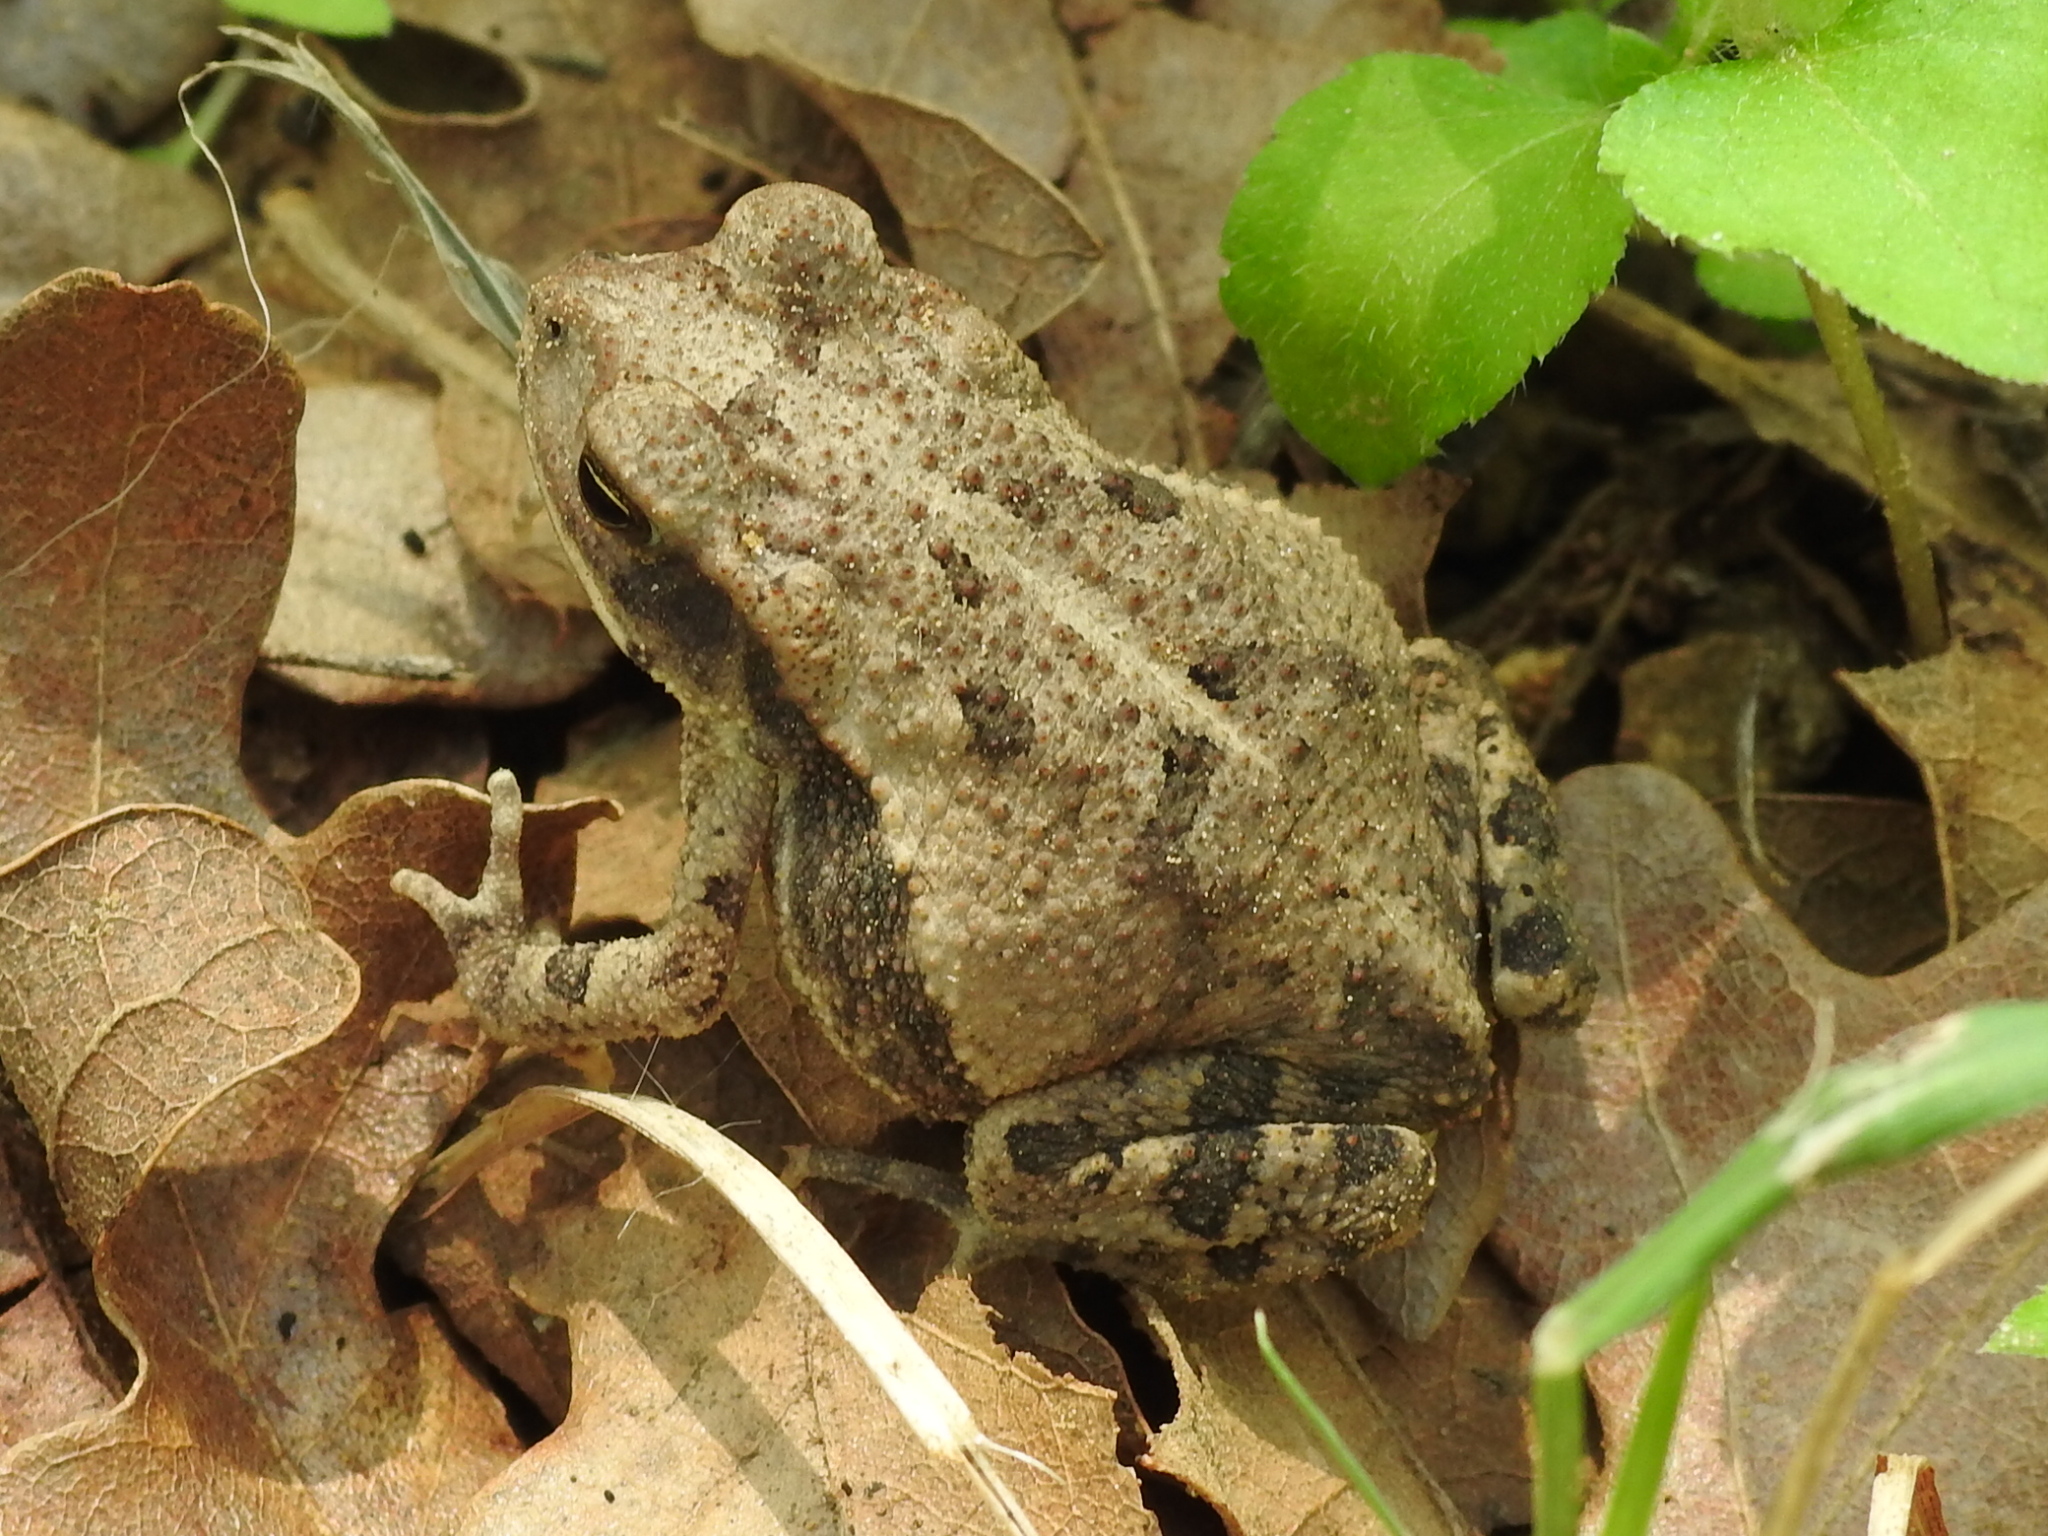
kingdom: Animalia
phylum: Chordata
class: Amphibia
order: Anura
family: Bufonidae
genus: Incilius
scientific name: Incilius nebulifer
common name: Gulf coast toad
